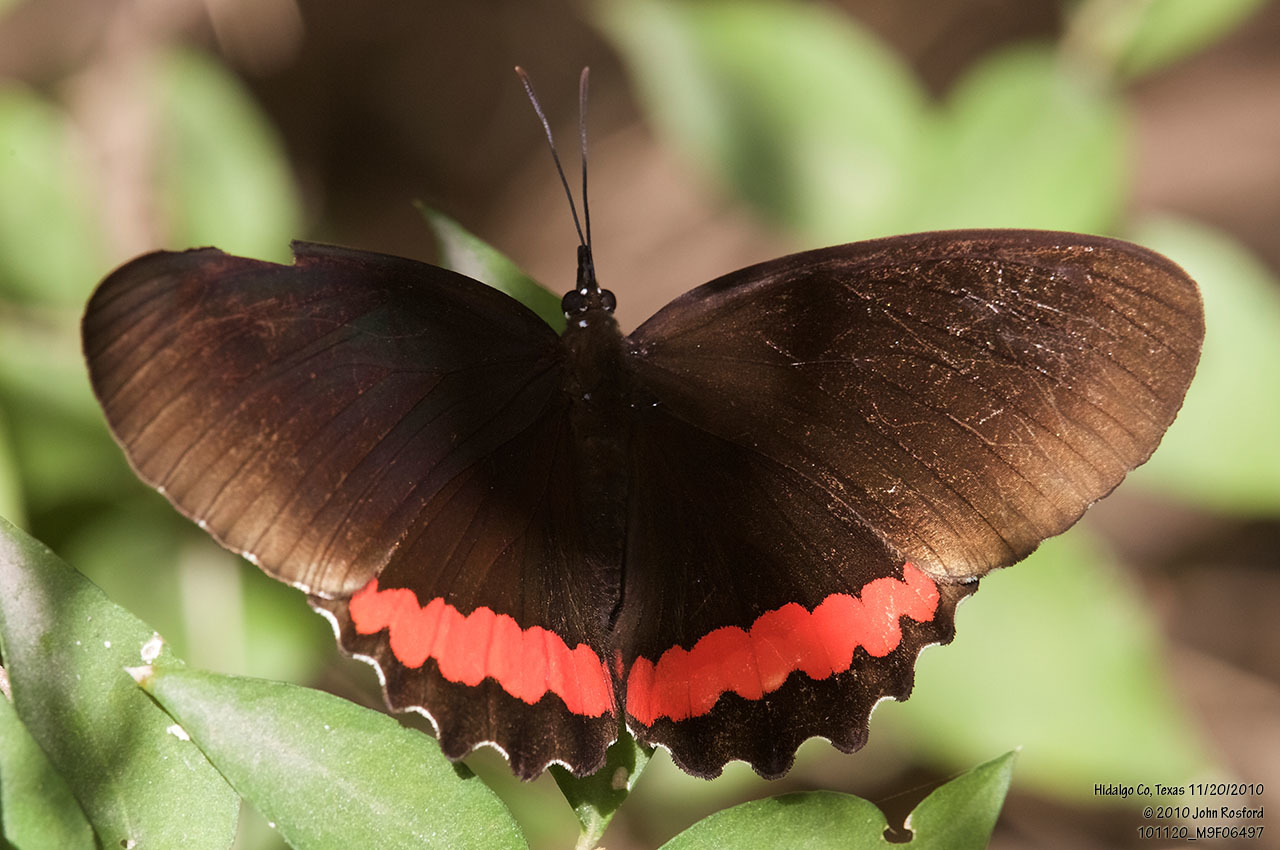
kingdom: Animalia
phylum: Arthropoda
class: Insecta
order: Lepidoptera
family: Nymphalidae
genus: Biblis
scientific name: Biblis aganisa
